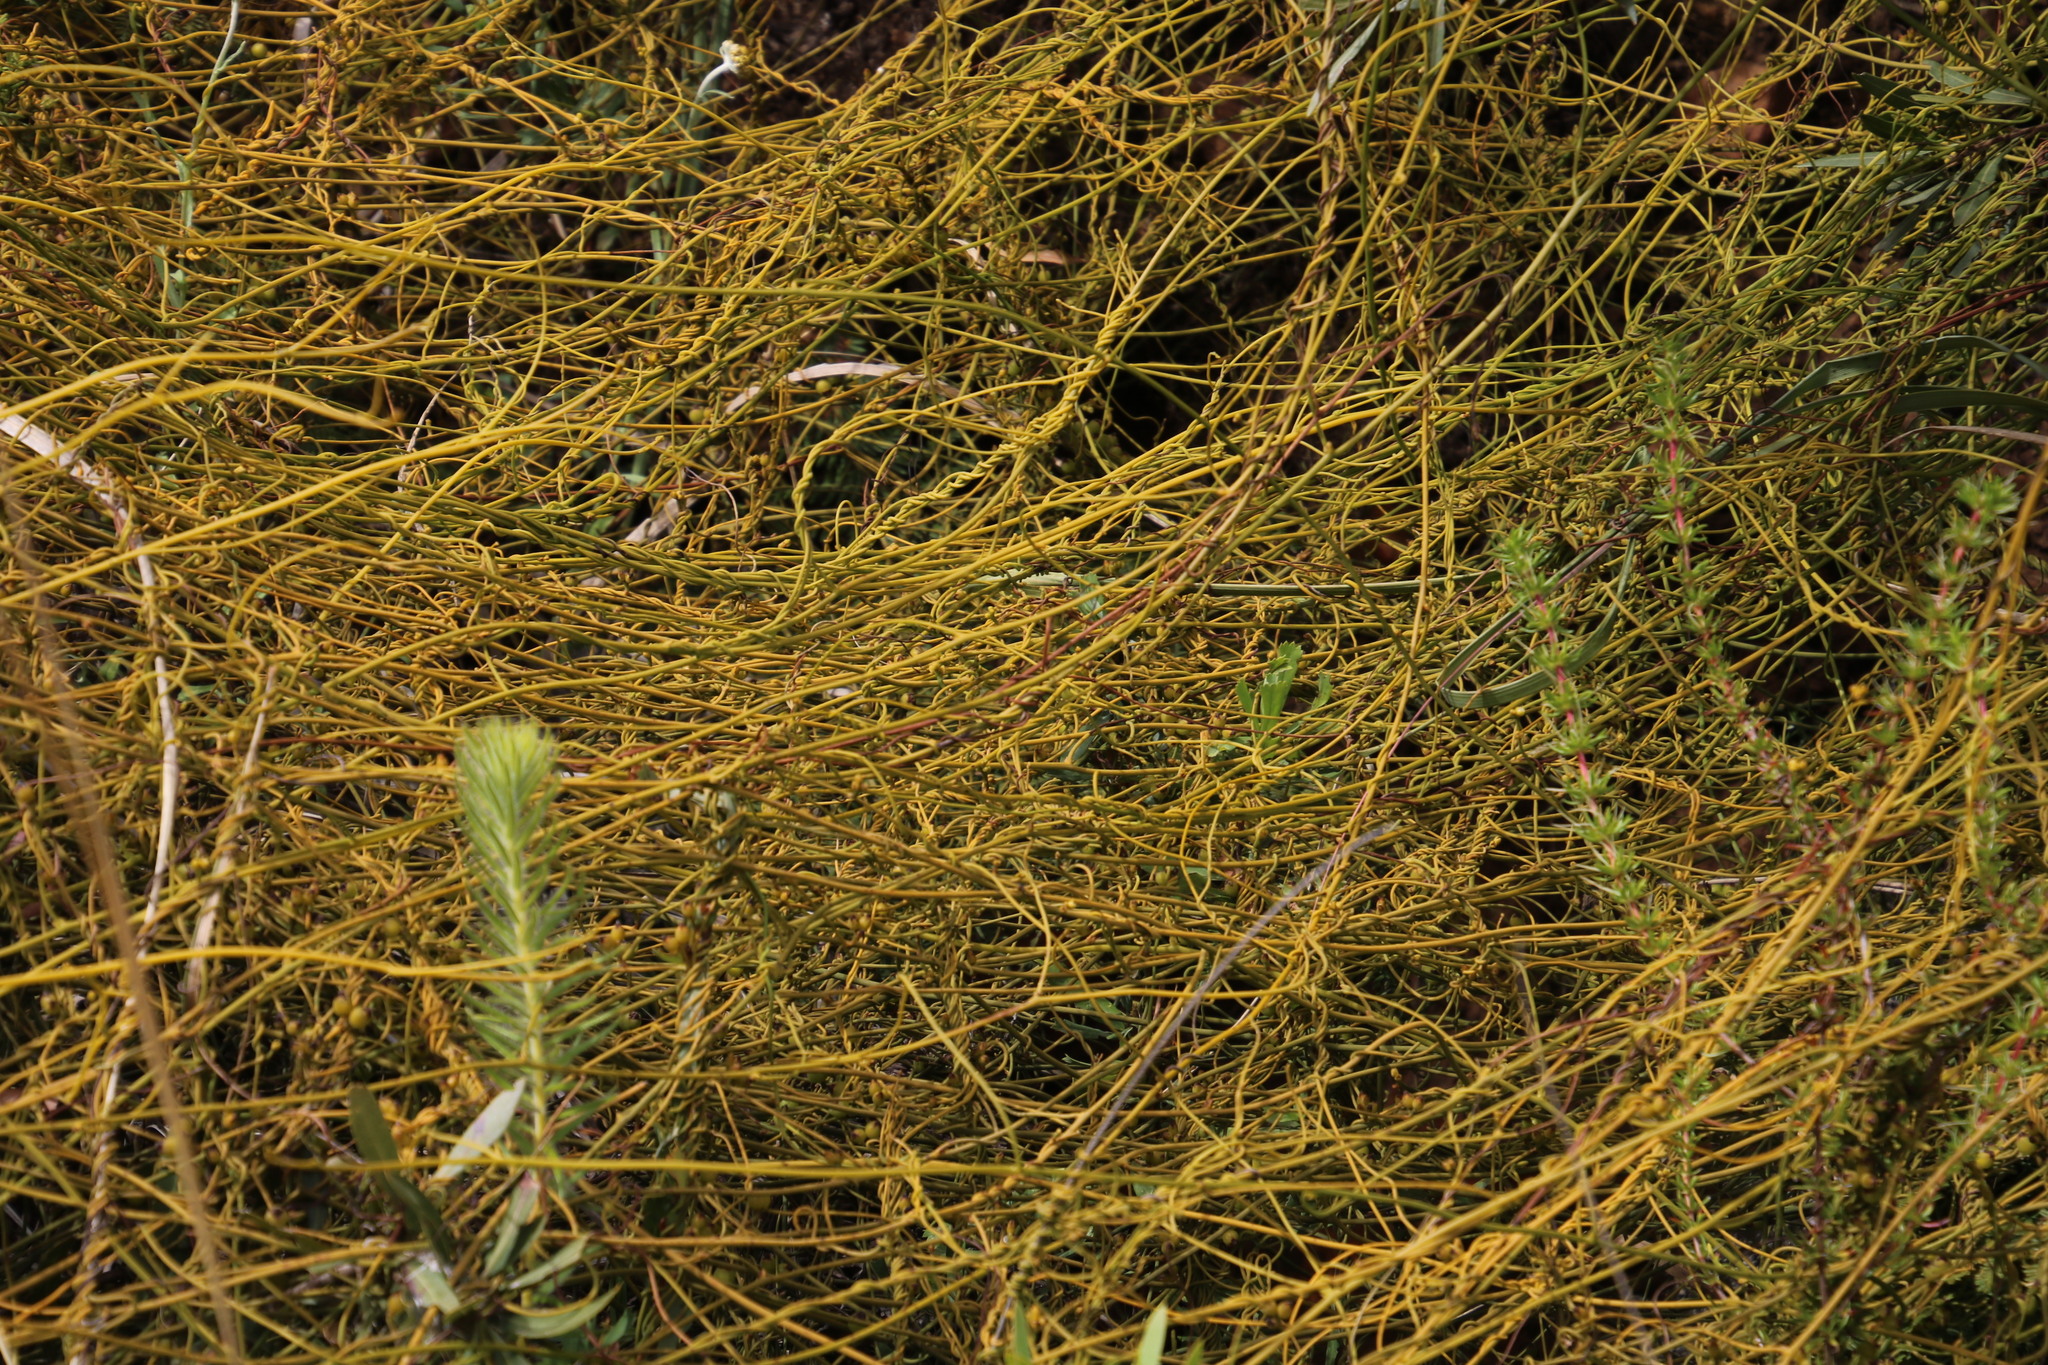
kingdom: Plantae
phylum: Tracheophyta
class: Magnoliopsida
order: Laurales
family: Lauraceae
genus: Cassytha
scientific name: Cassytha ciliolata
